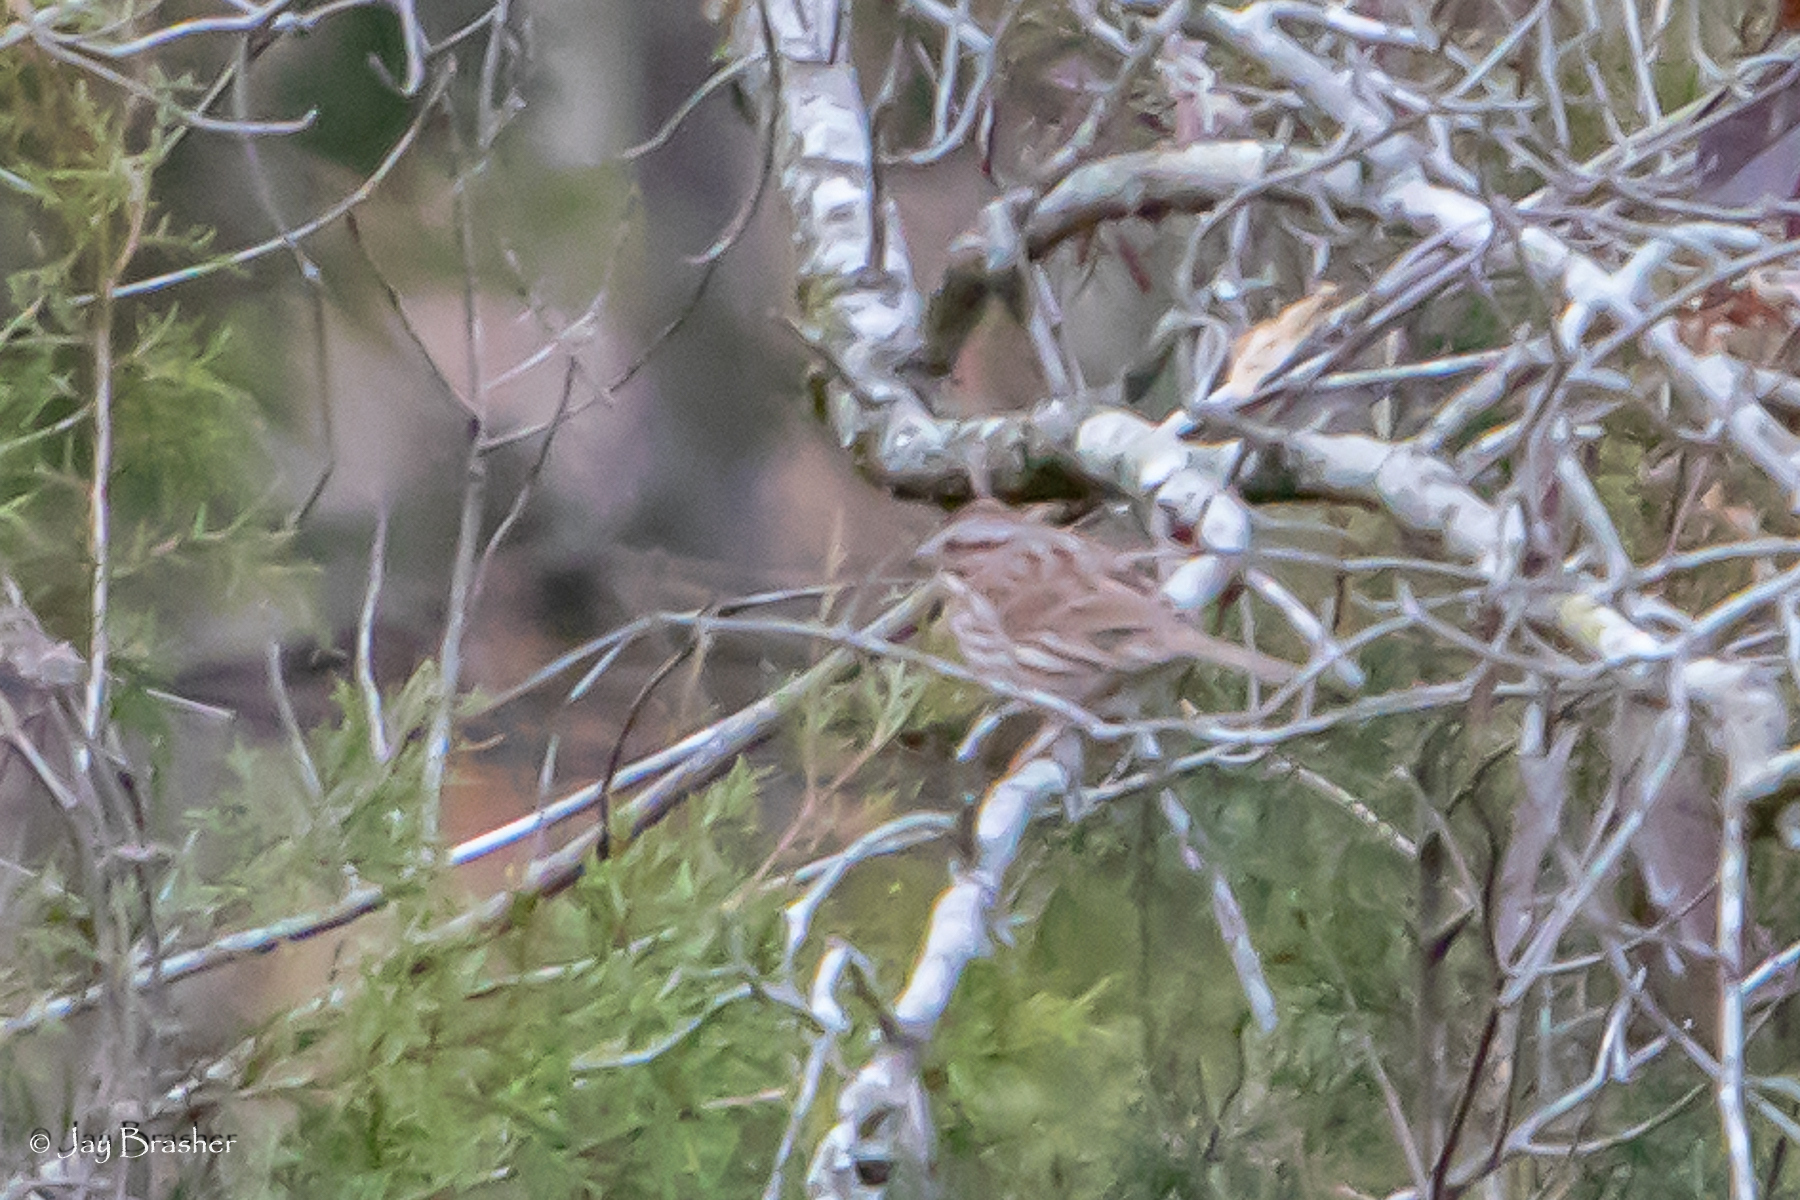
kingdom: Animalia
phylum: Chordata
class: Aves
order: Passeriformes
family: Passerellidae
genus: Melospiza
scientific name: Melospiza melodia
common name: Song sparrow
